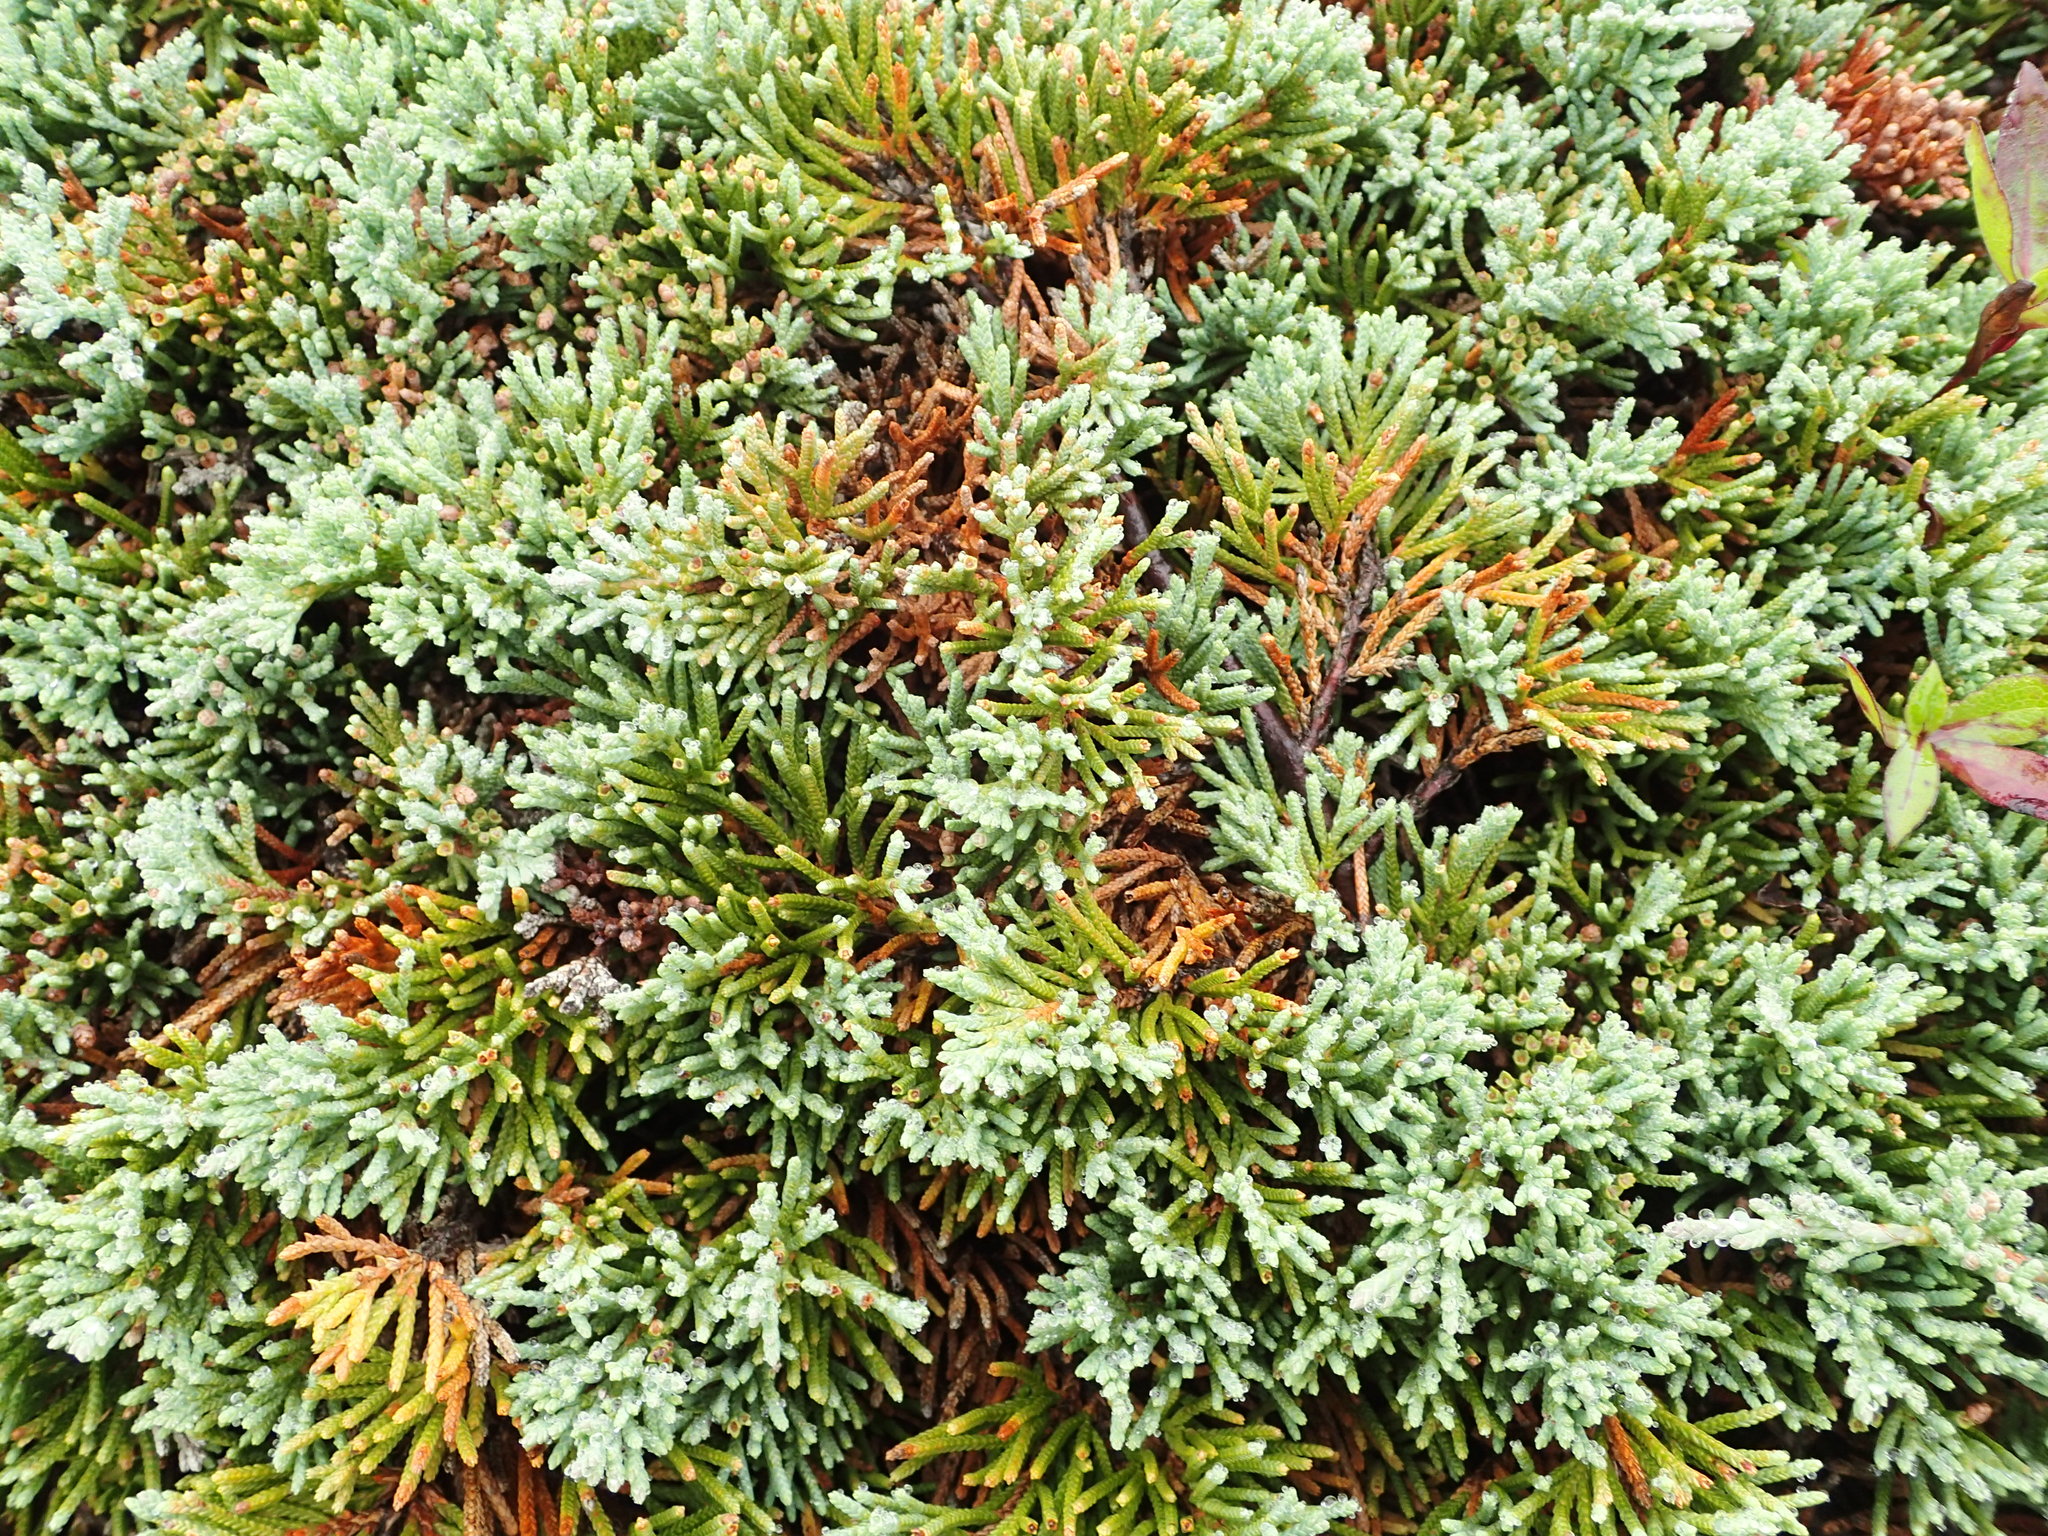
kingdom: Plantae
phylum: Tracheophyta
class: Pinopsida
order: Pinales
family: Cupressaceae
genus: Juniperus
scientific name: Juniperus horizontalis
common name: Creeping juniper
